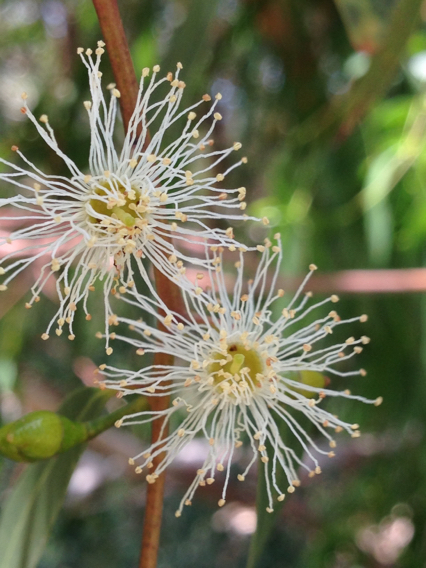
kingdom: Plantae
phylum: Tracheophyta
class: Magnoliopsida
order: Myrtales
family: Myrtaceae
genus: Eucalyptus
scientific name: Eucalyptus viminalis
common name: Manna gum
